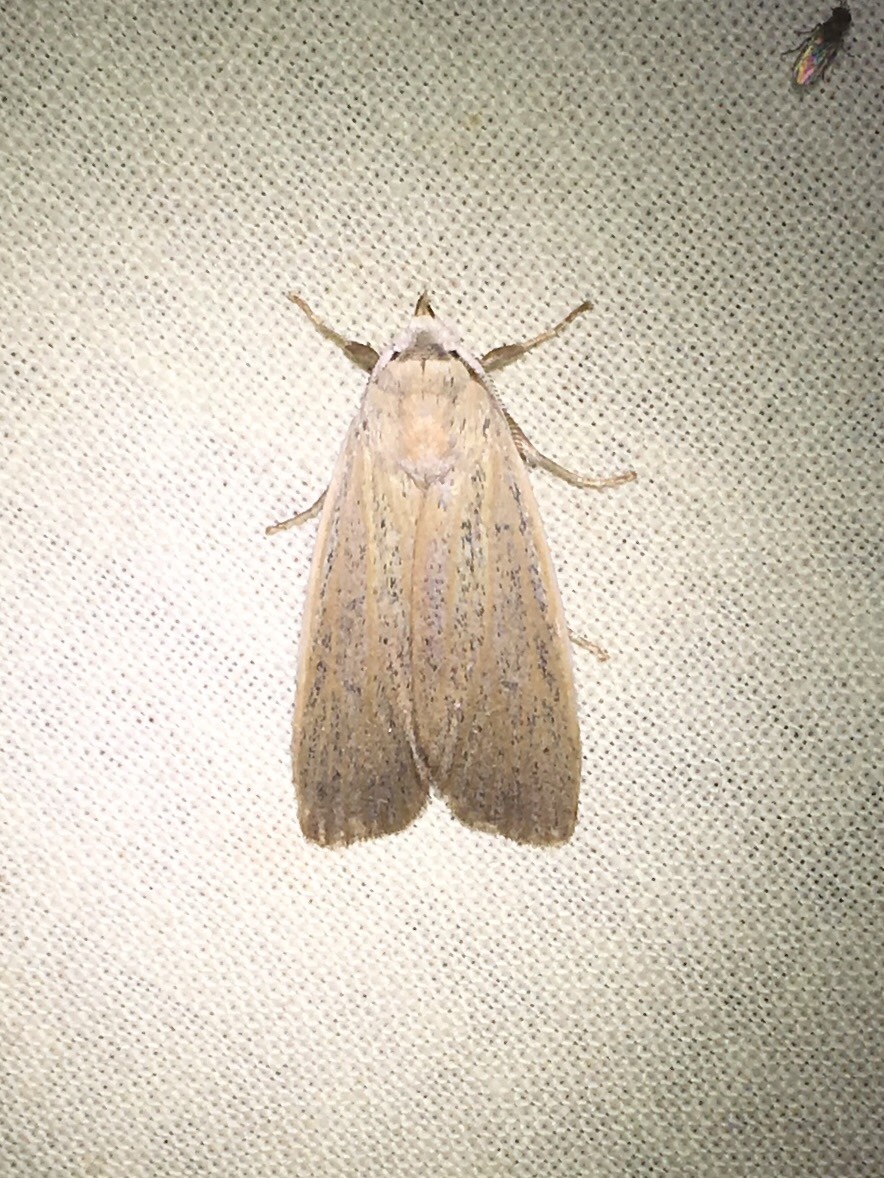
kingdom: Animalia
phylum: Arthropoda
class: Insecta
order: Lepidoptera
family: Erebidae
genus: Palpidia
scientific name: Palpidia pallidior
